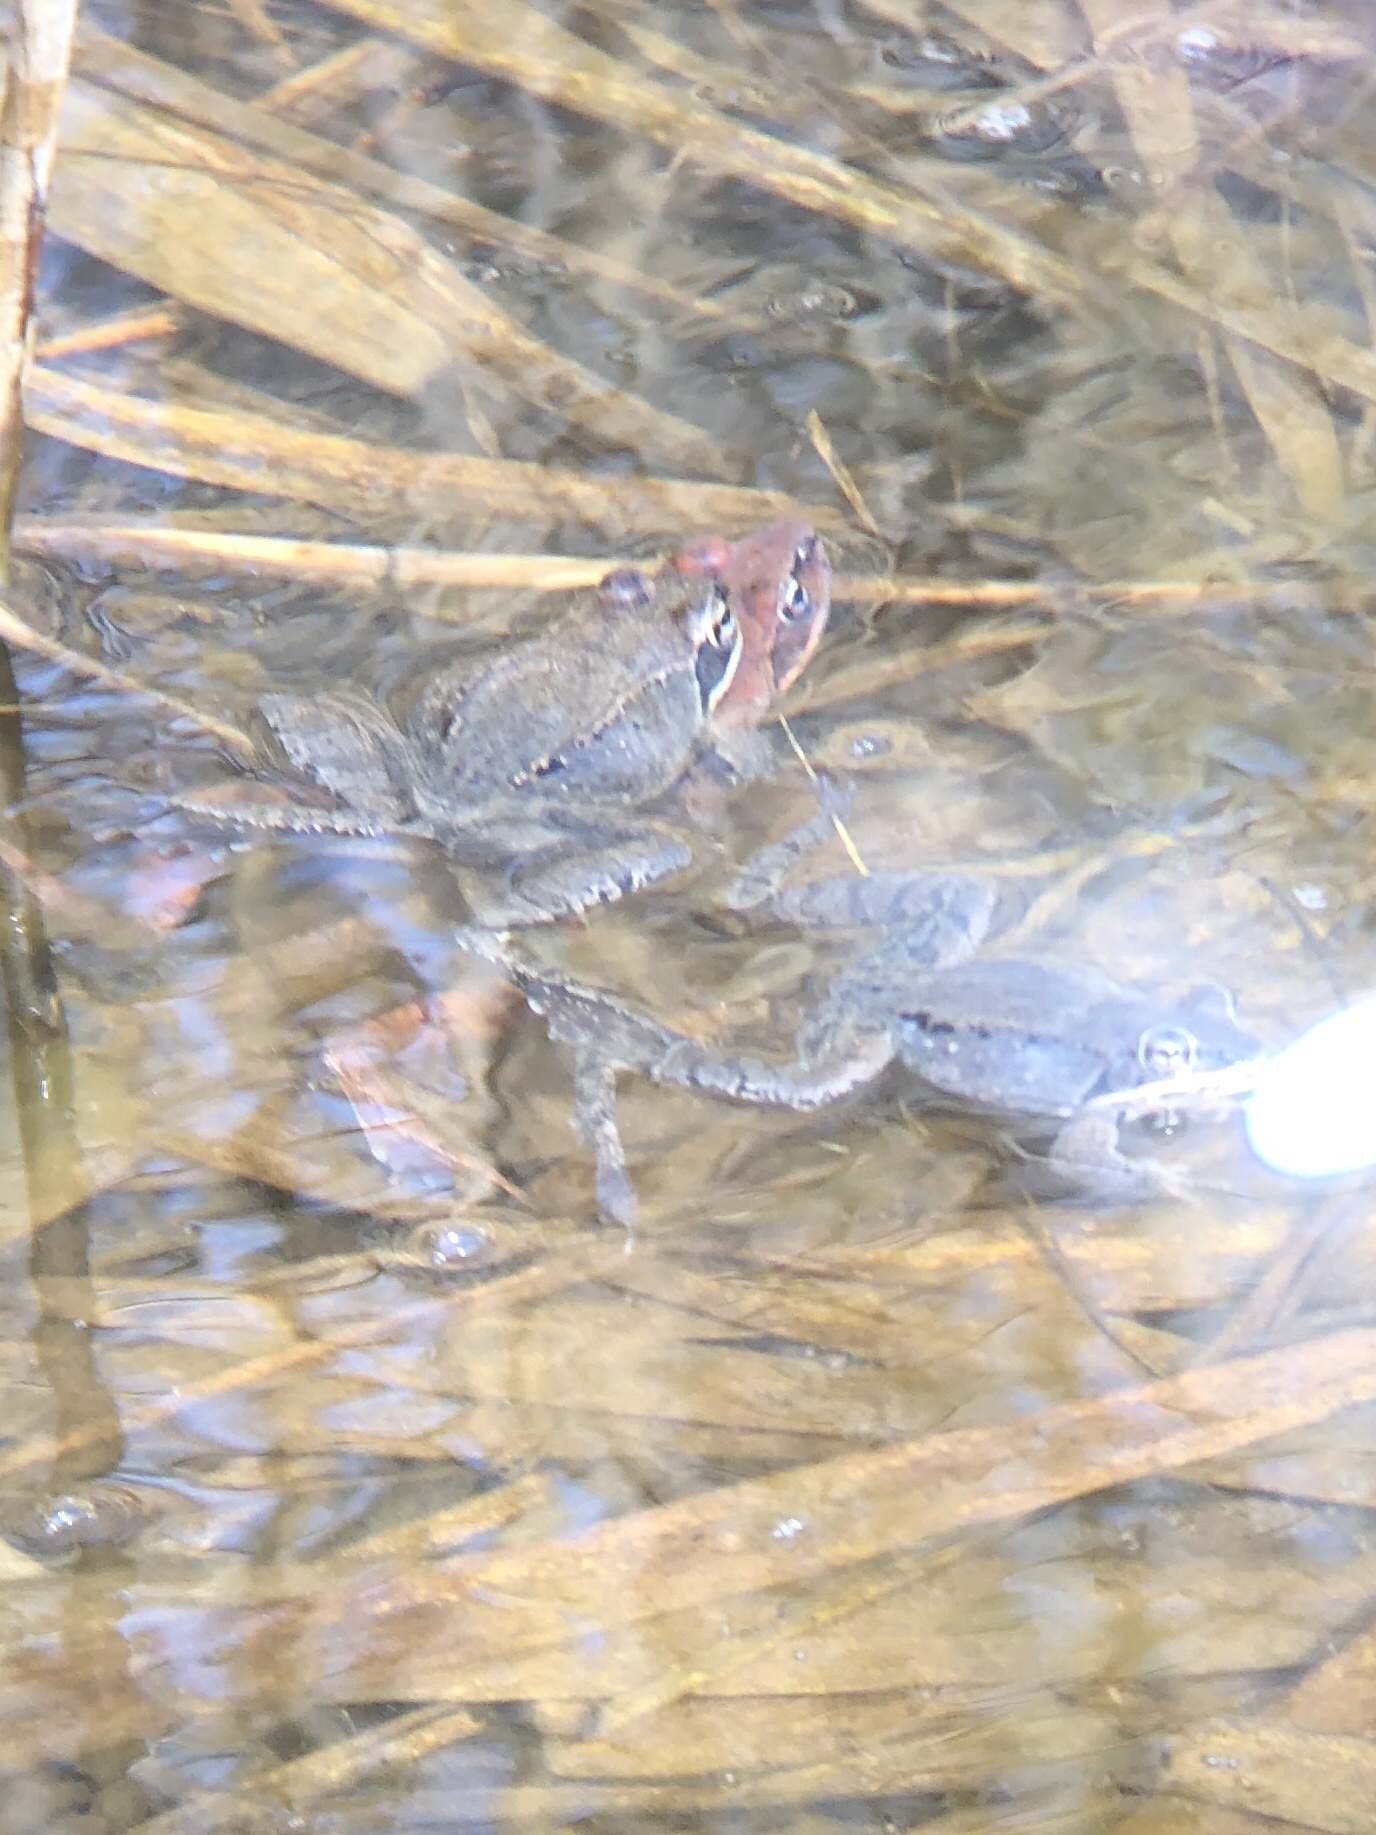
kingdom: Animalia
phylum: Chordata
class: Amphibia
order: Anura
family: Ranidae
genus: Lithobates
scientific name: Lithobates sylvaticus
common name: Wood frog
